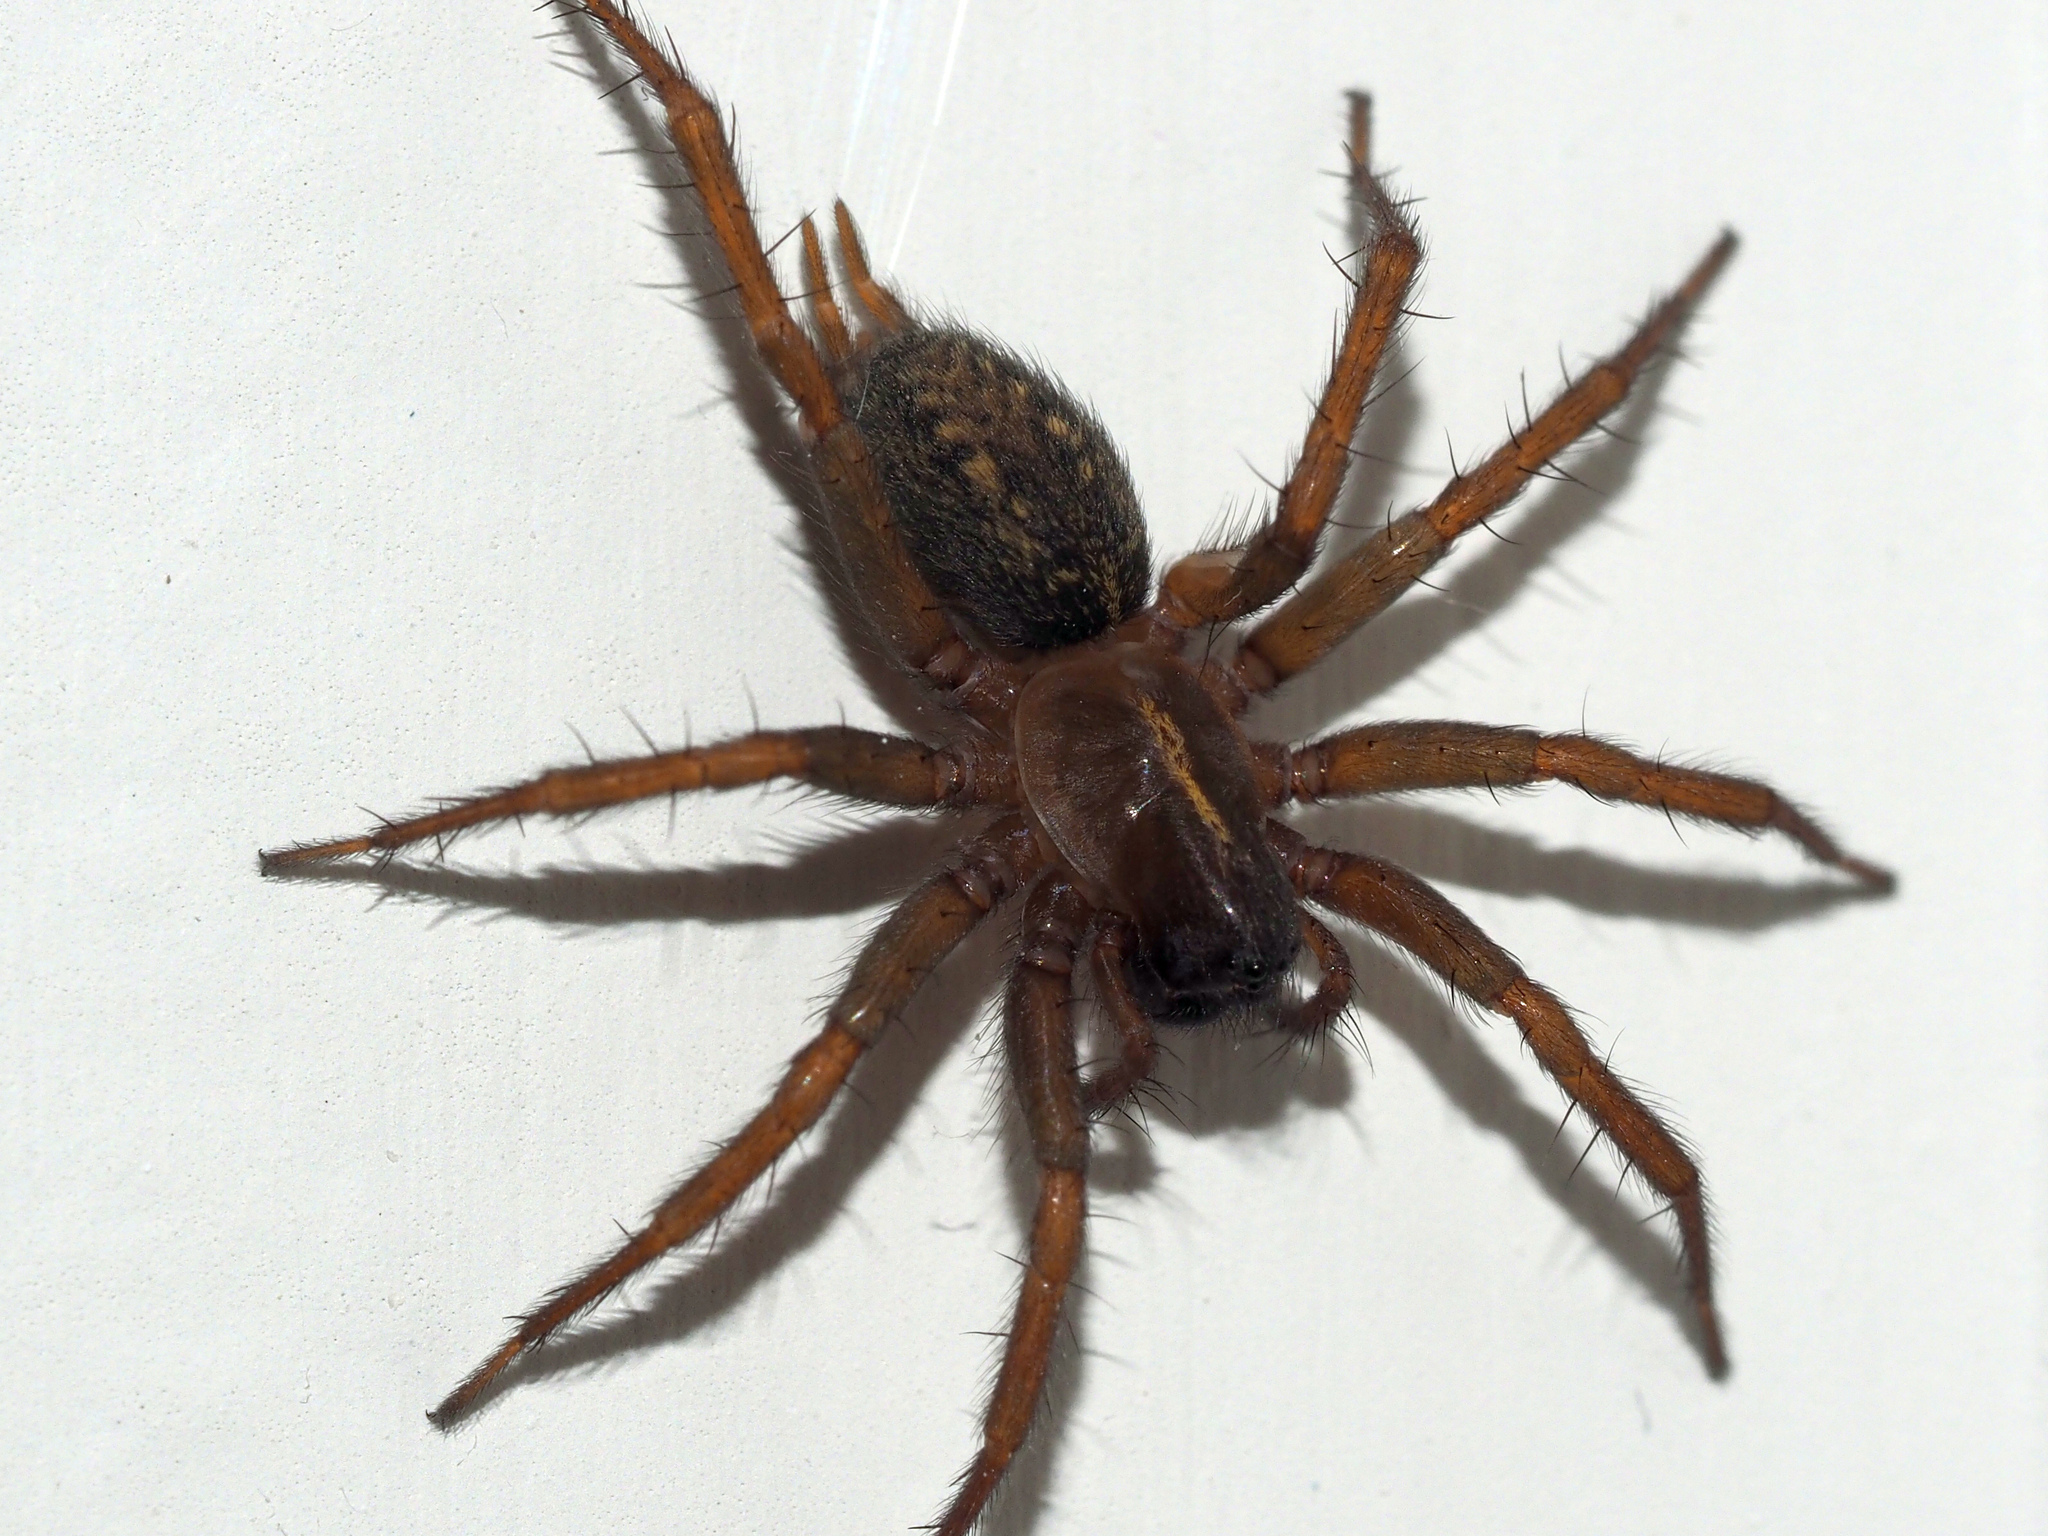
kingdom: Animalia
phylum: Arthropoda
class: Arachnida
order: Araneae
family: Agelenidae
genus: Lycosoides
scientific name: Lycosoides coarctata
